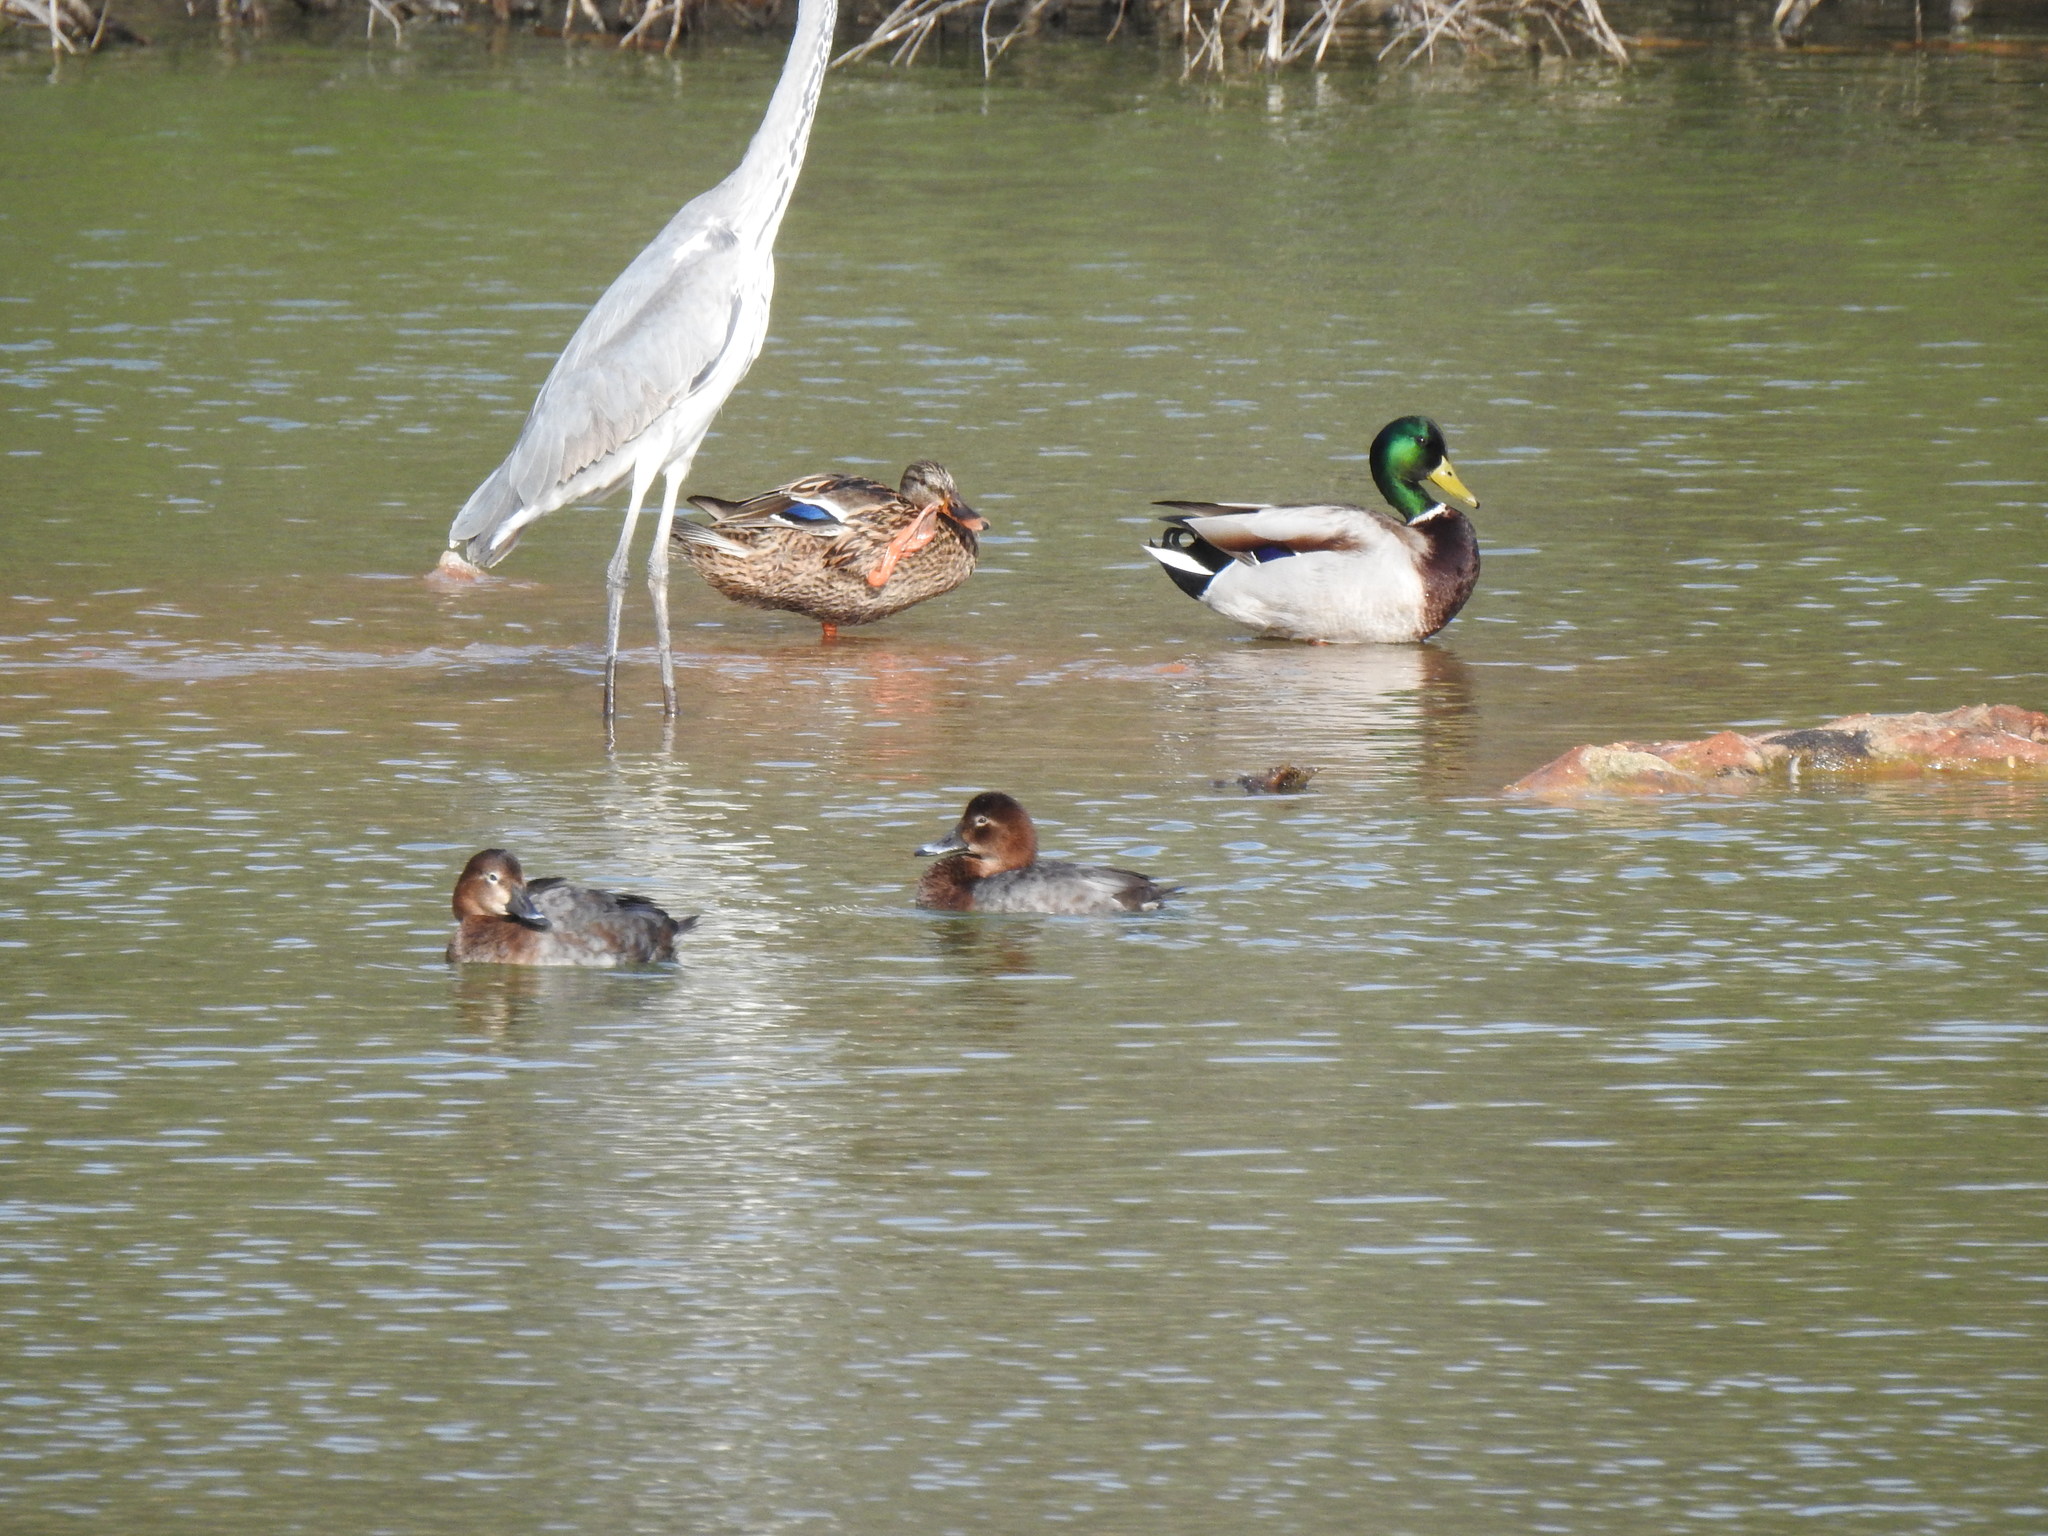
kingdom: Animalia
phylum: Chordata
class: Aves
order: Anseriformes
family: Anatidae
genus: Aythya
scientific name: Aythya ferina
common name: Common pochard
